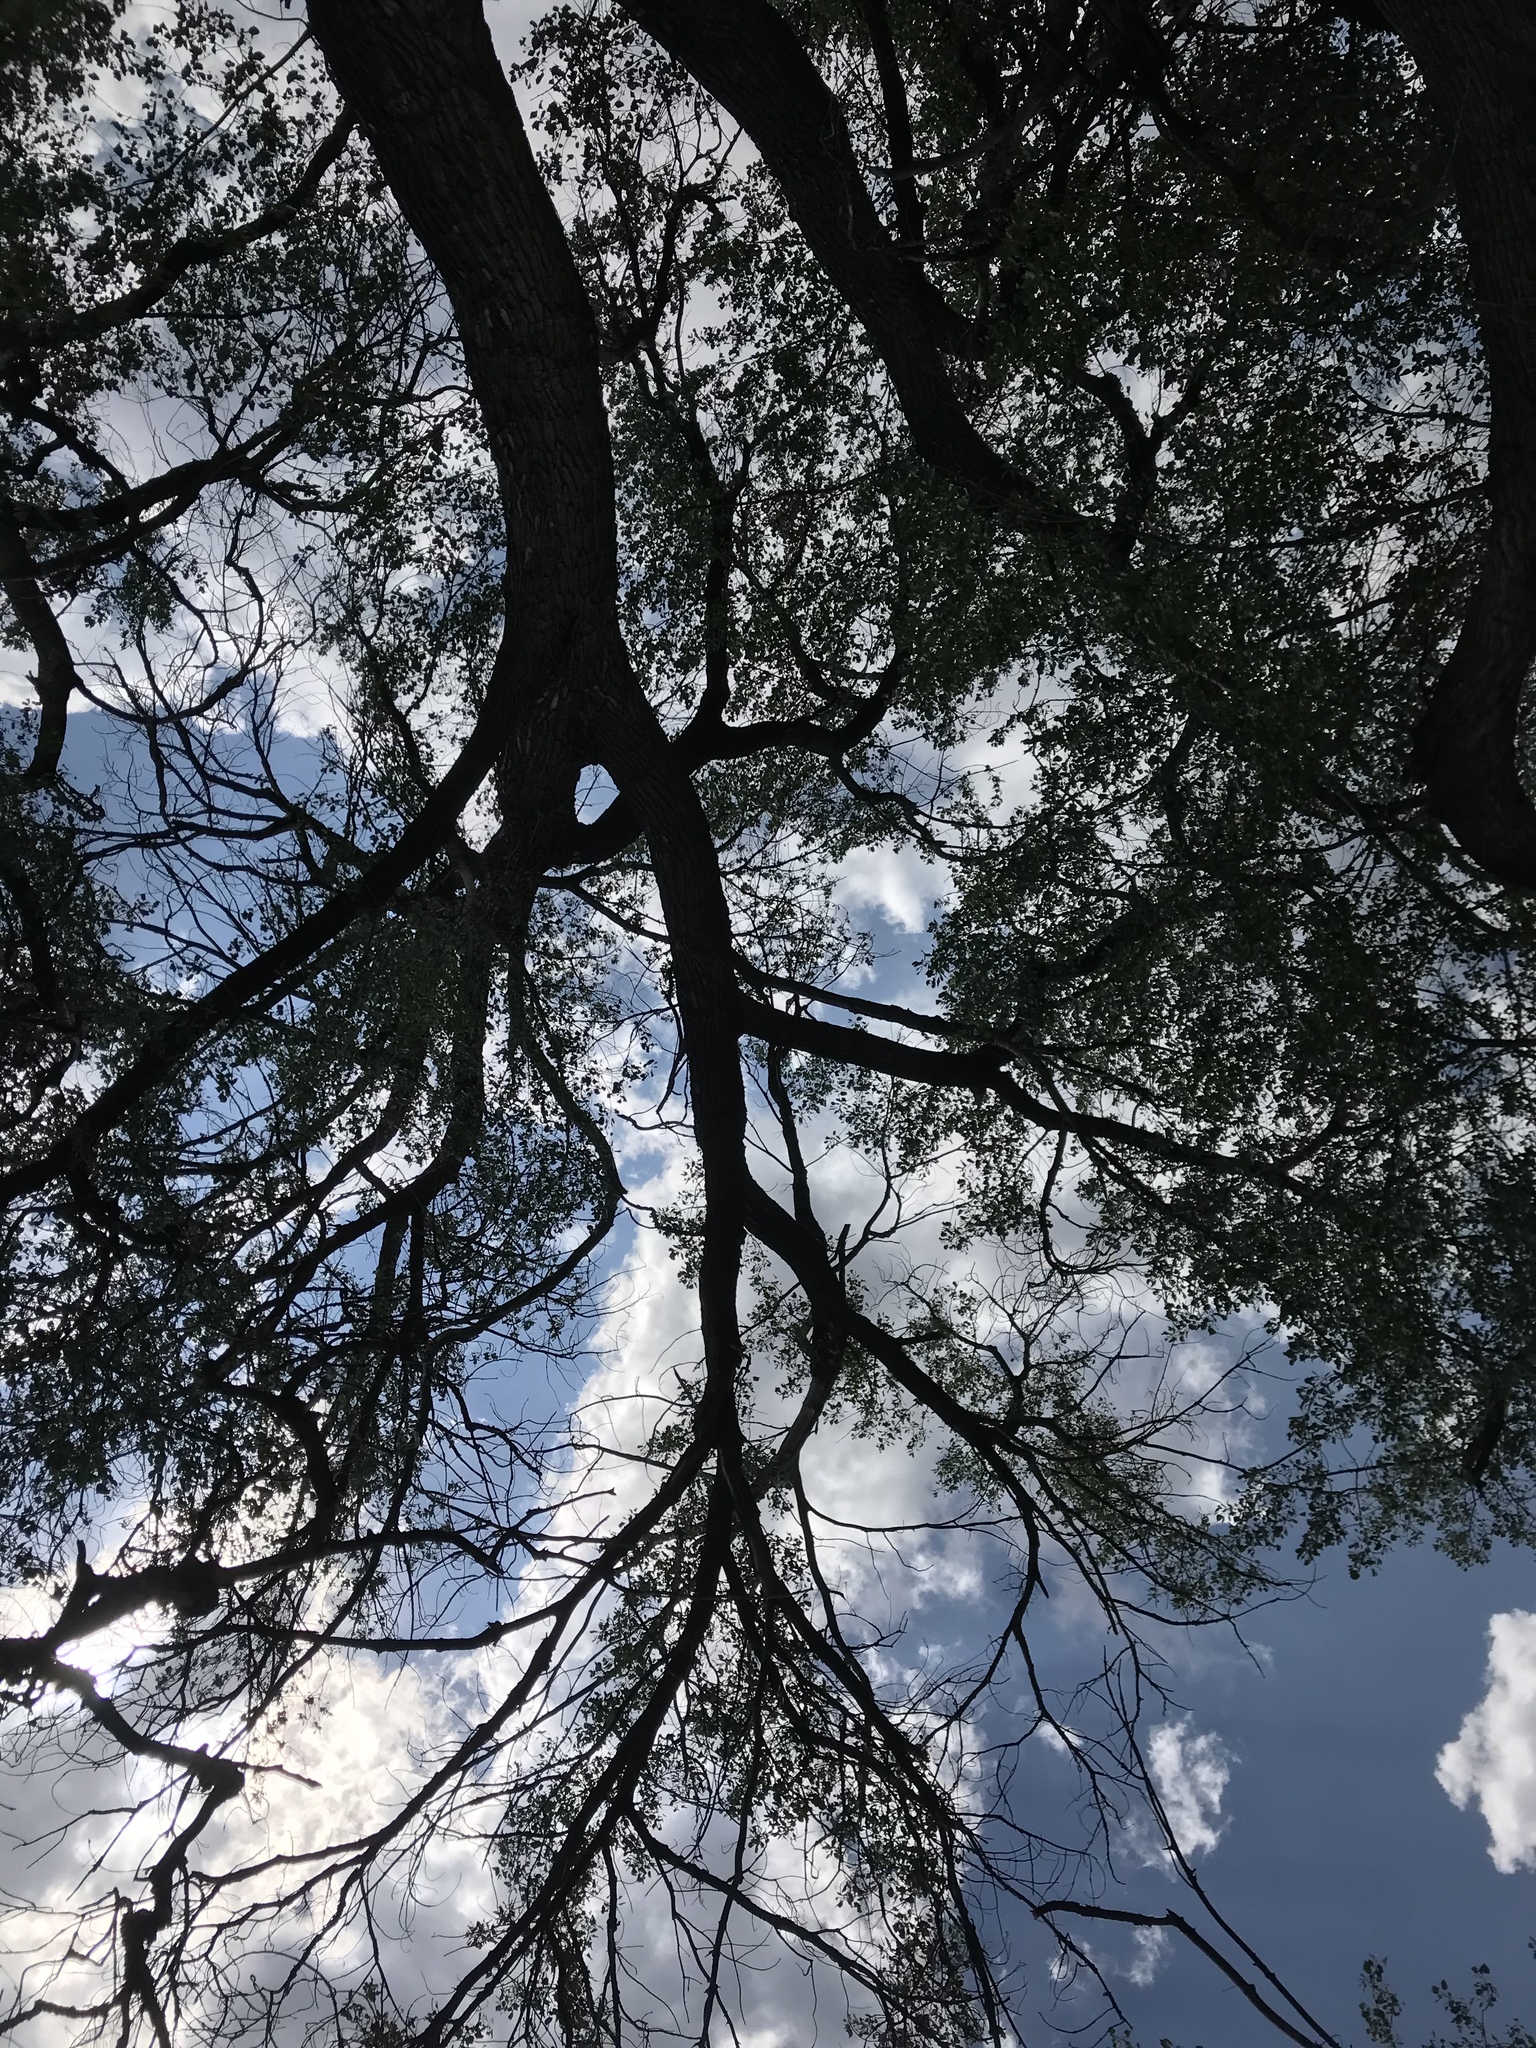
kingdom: Plantae
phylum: Tracheophyta
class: Magnoliopsida
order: Malpighiales
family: Salicaceae
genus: Populus
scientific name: Populus fremontii
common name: Fremont's cottonwood
